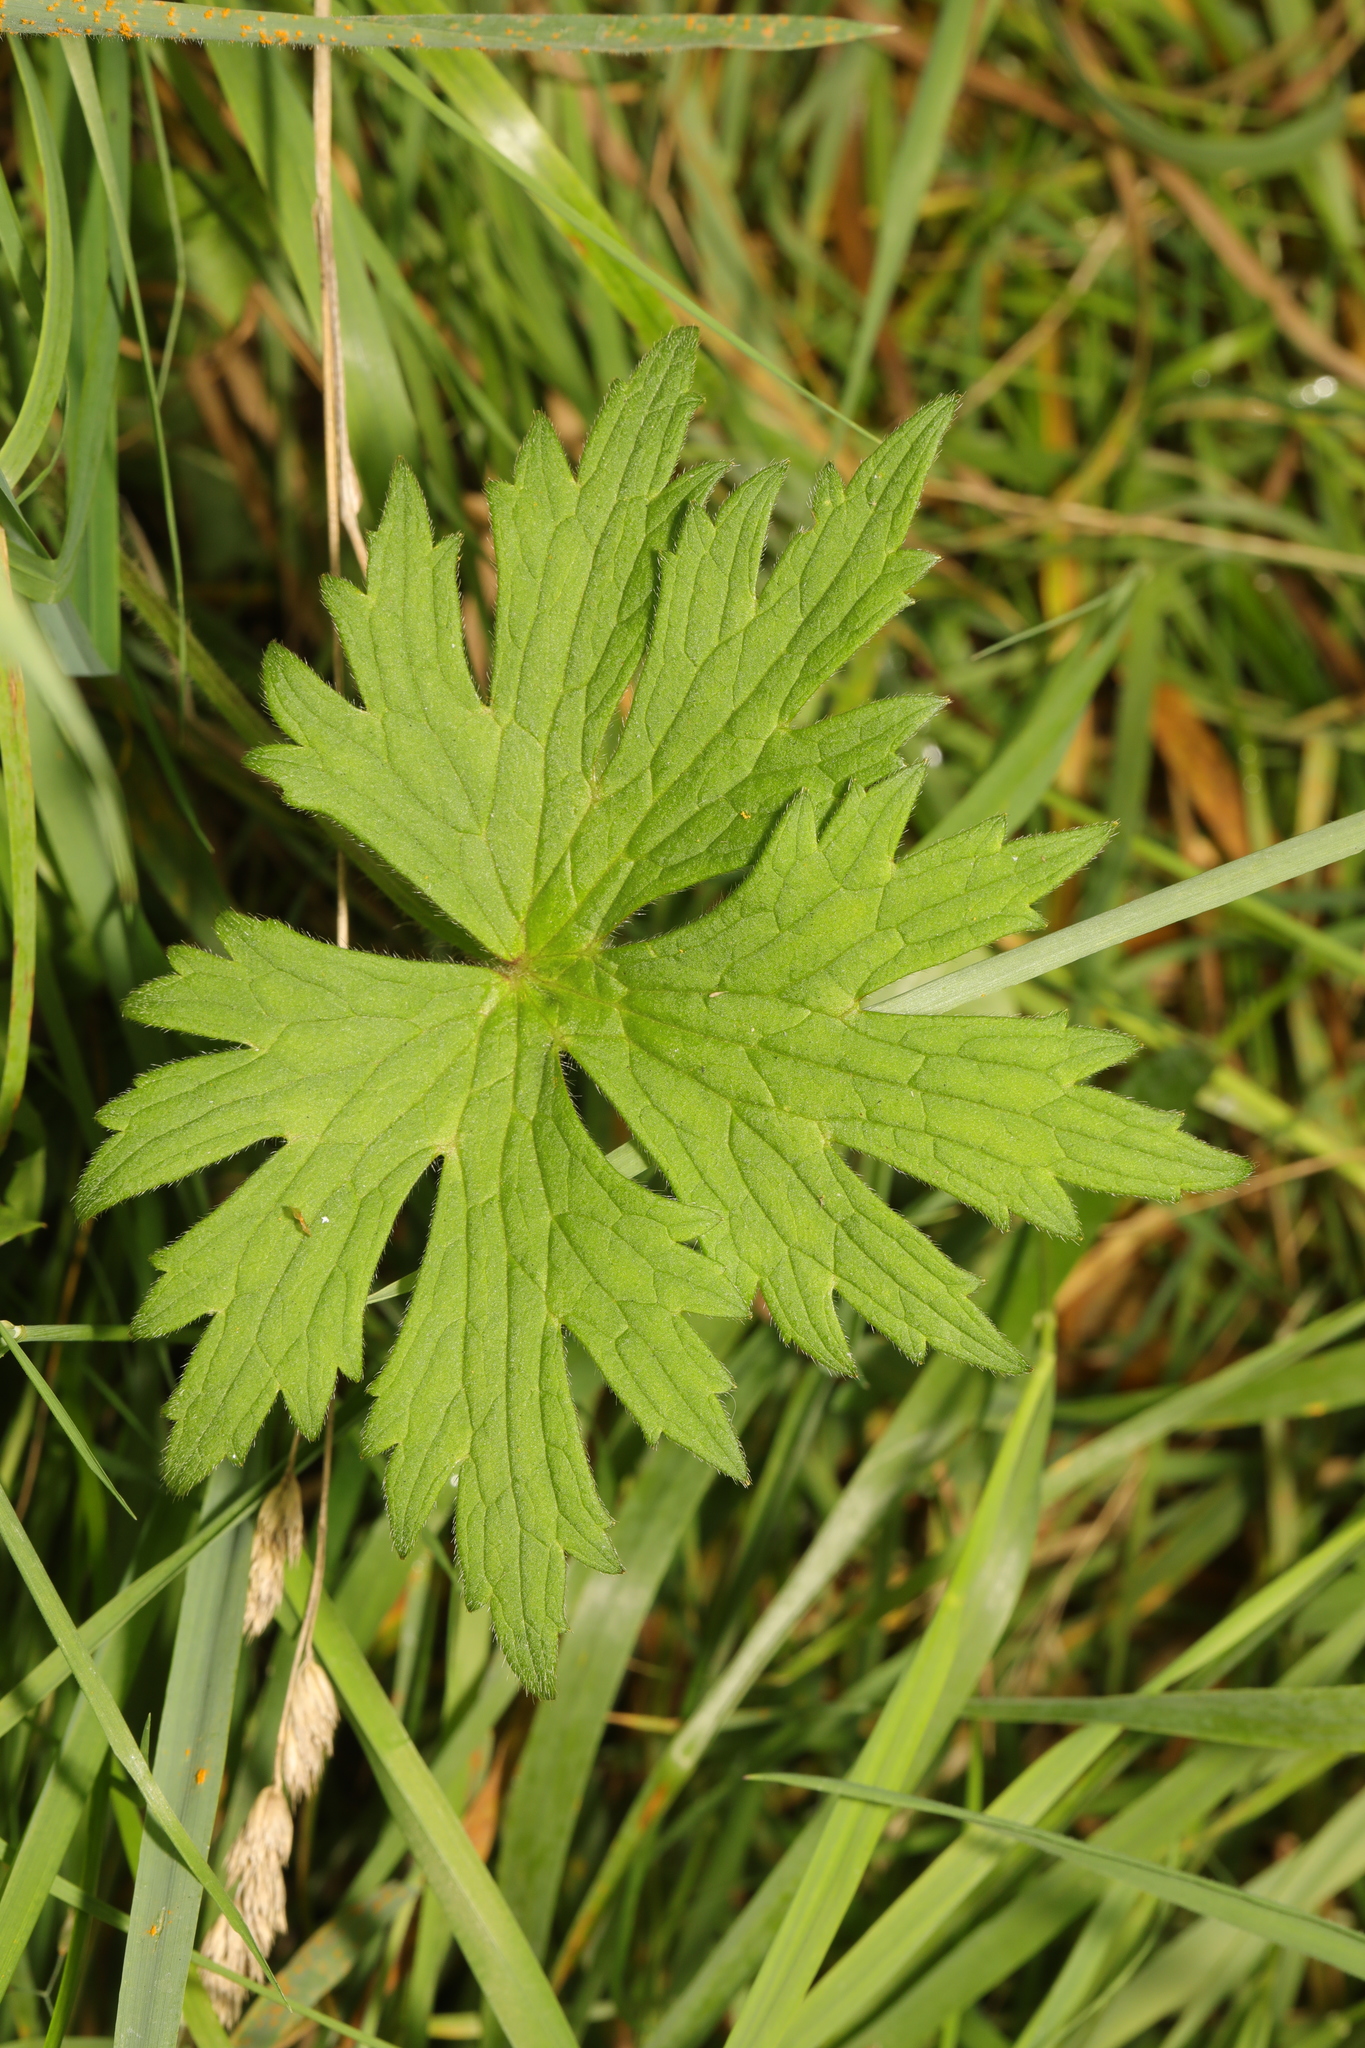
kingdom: Plantae
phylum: Tracheophyta
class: Magnoliopsida
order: Ranunculales
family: Ranunculaceae
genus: Ranunculus
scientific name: Ranunculus acris
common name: Meadow buttercup
